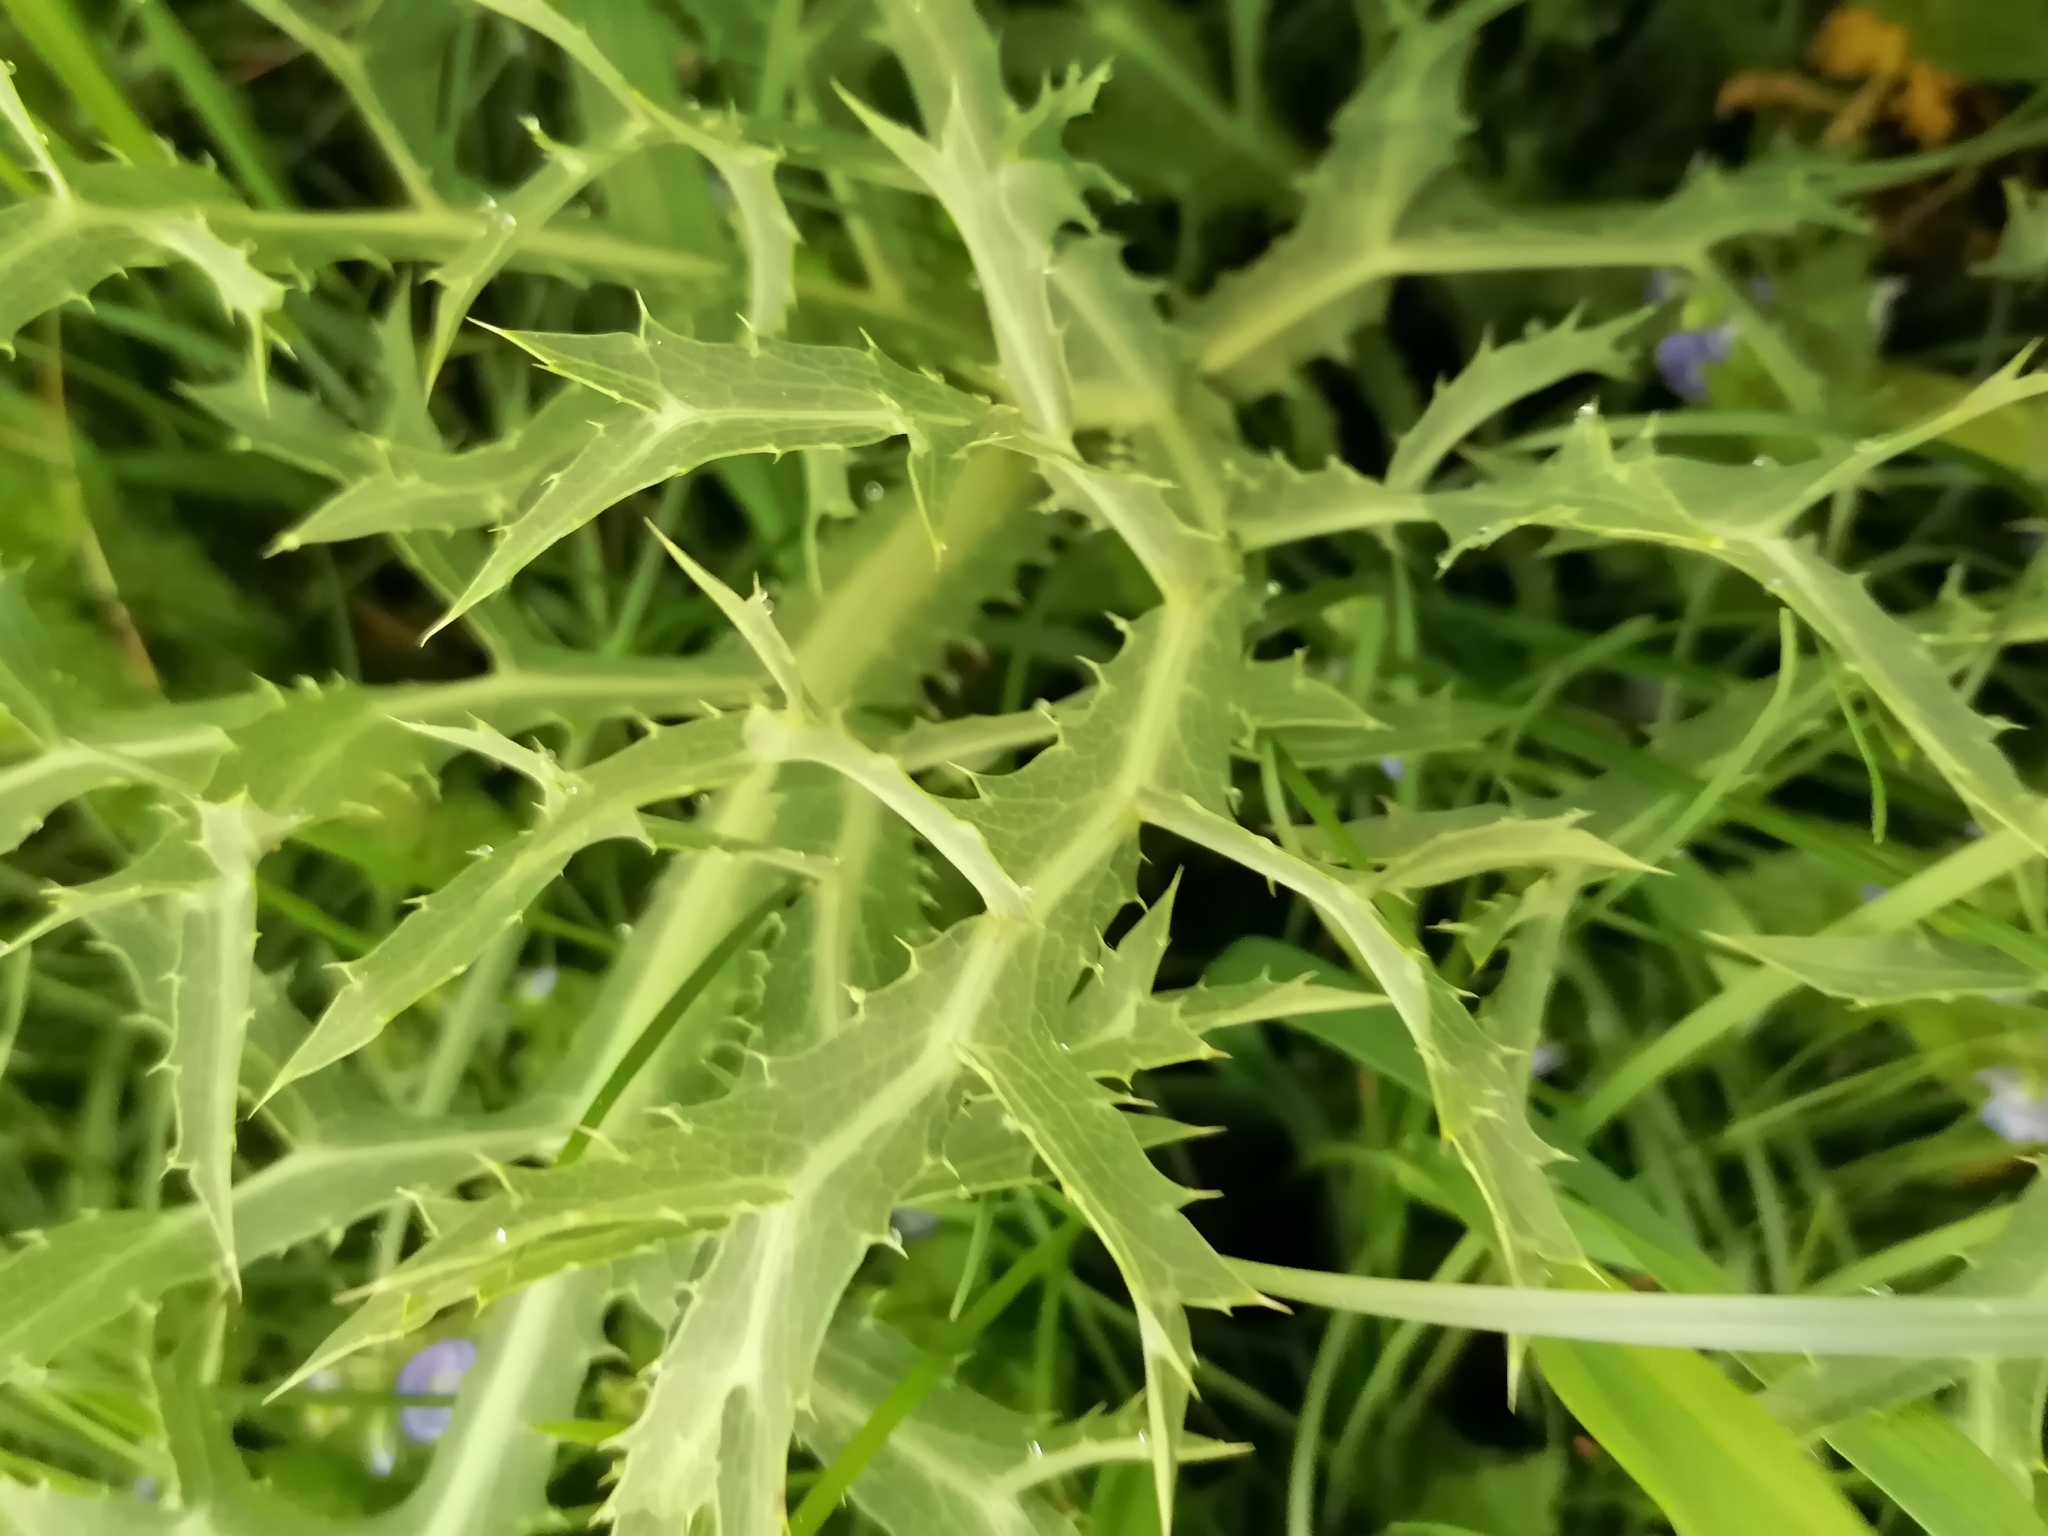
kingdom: Plantae
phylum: Tracheophyta
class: Magnoliopsida
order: Apiales
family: Apiaceae
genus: Eryngium
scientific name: Eryngium campestre
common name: Field eryngo
